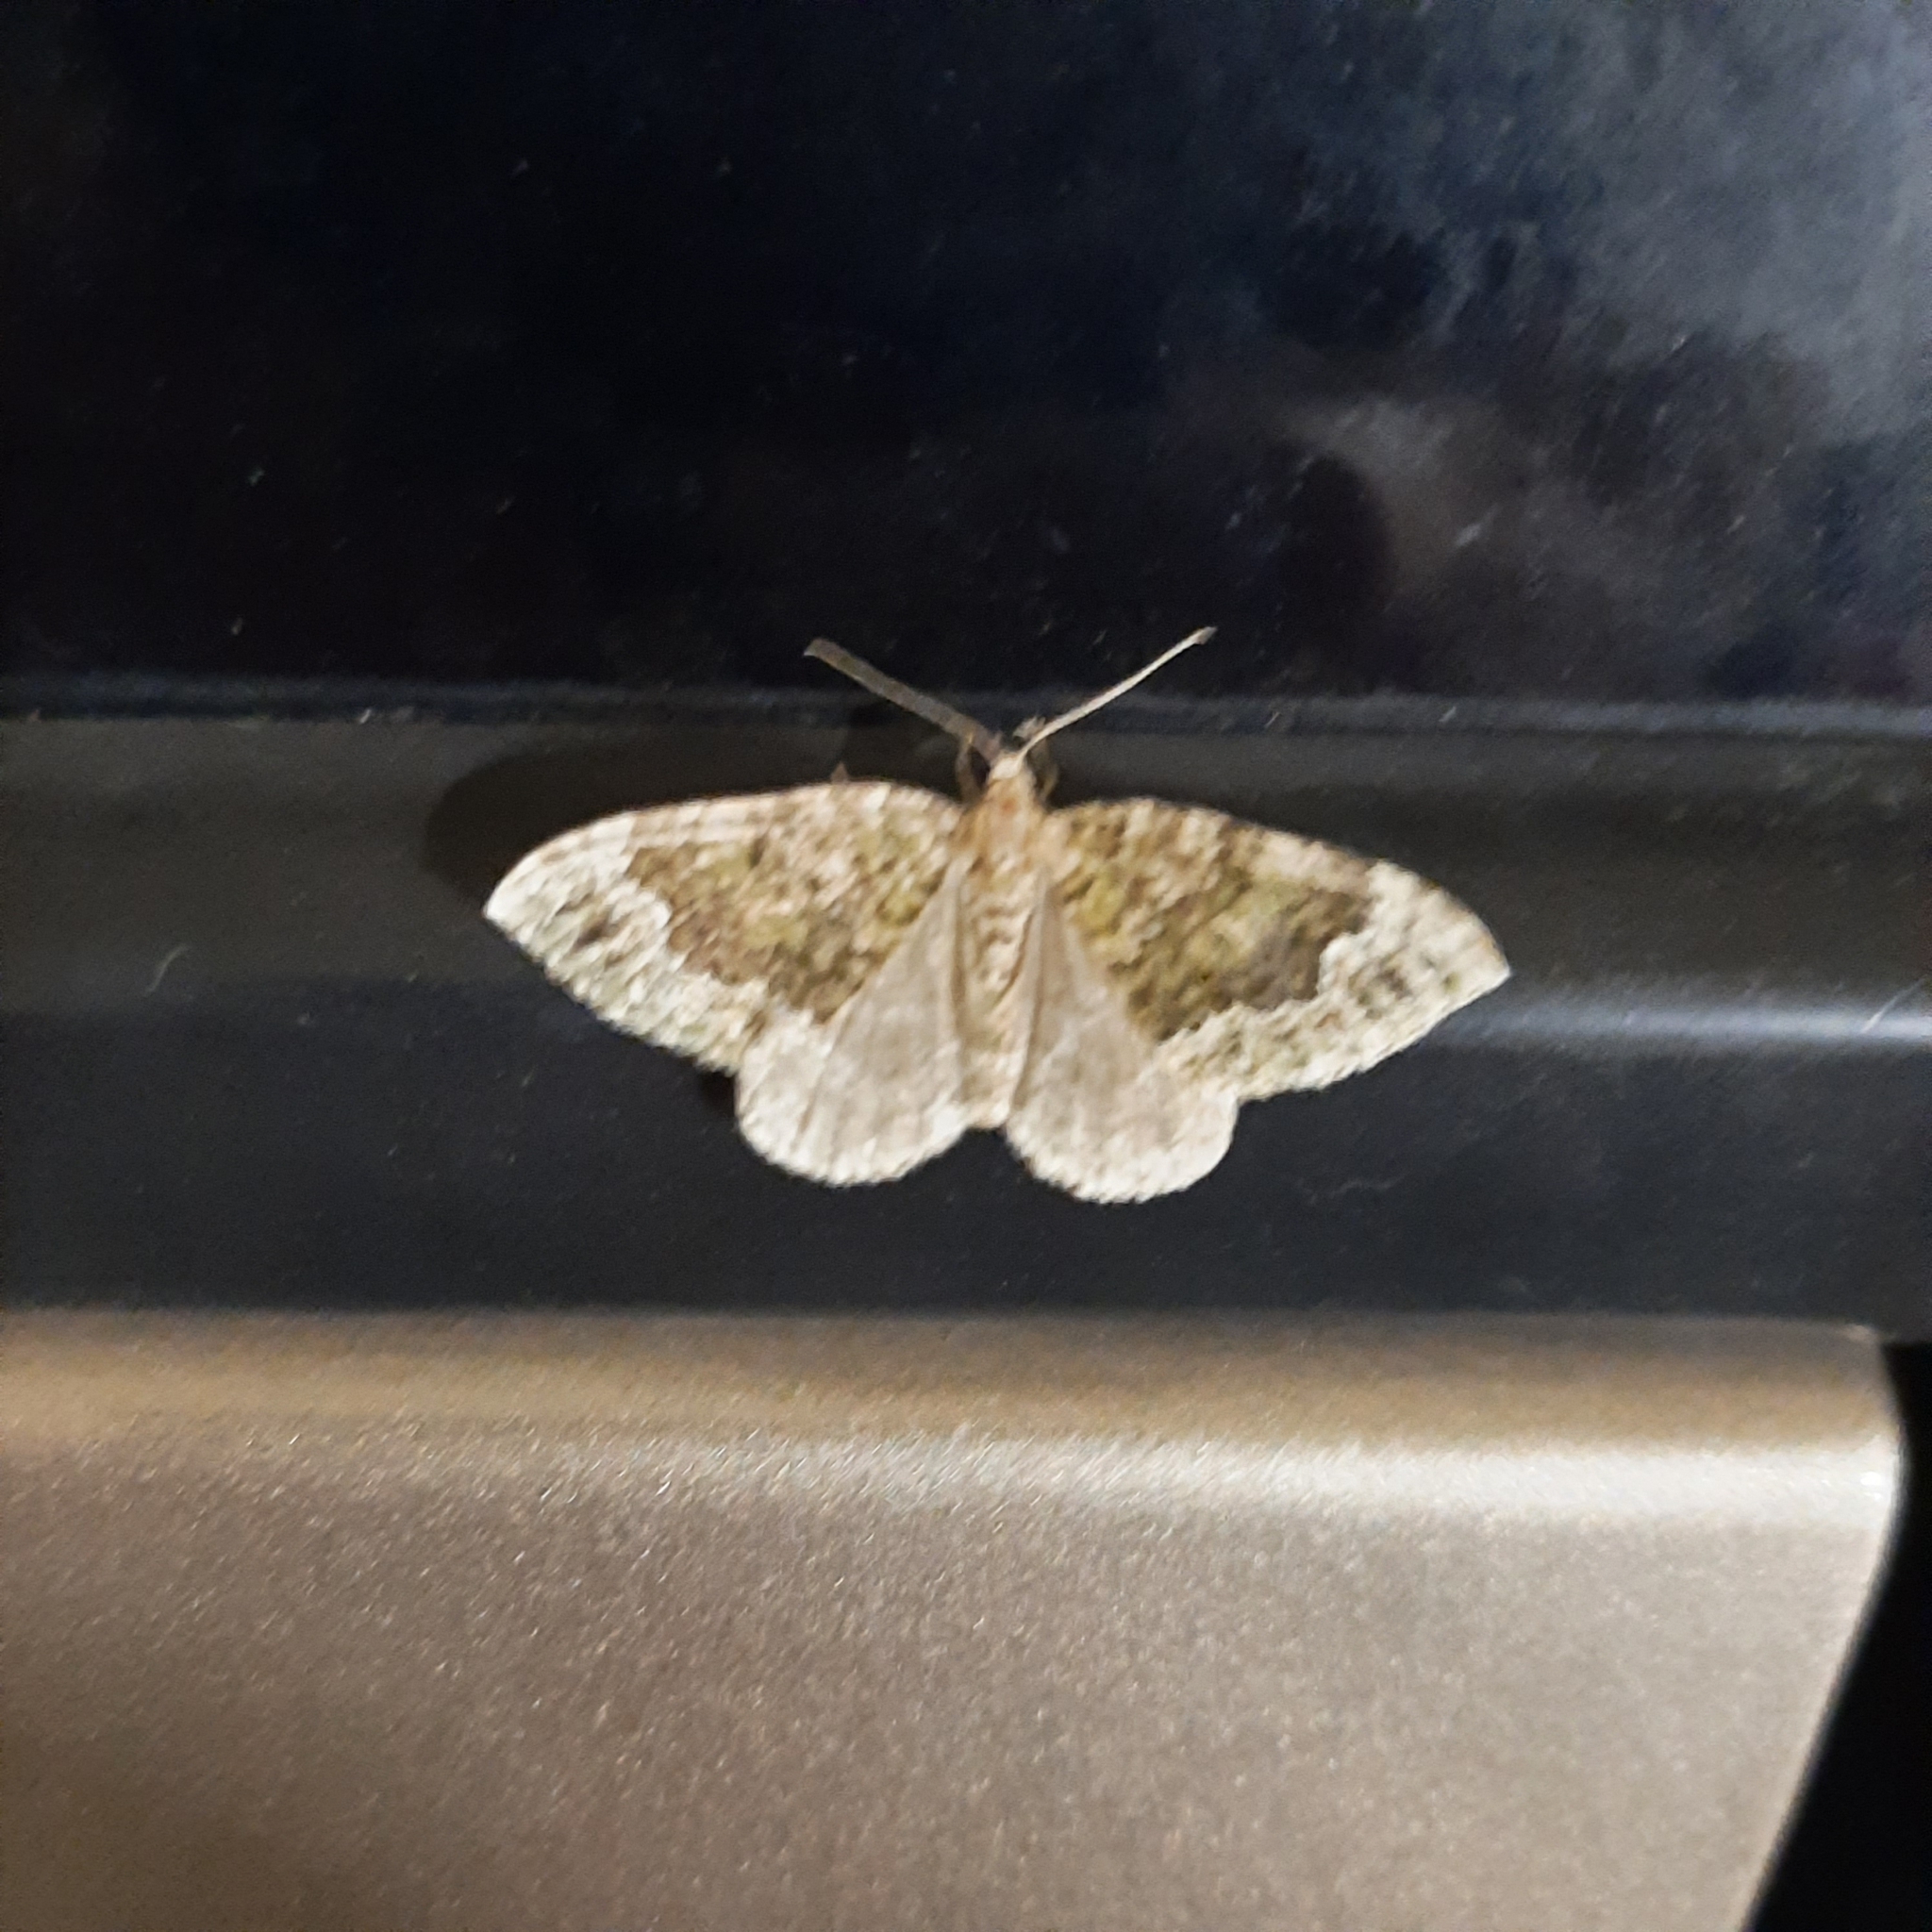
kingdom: Animalia
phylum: Arthropoda
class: Insecta
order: Lepidoptera
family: Geometridae
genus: Colostygia
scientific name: Colostygia olivata
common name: Beech-green carpet
